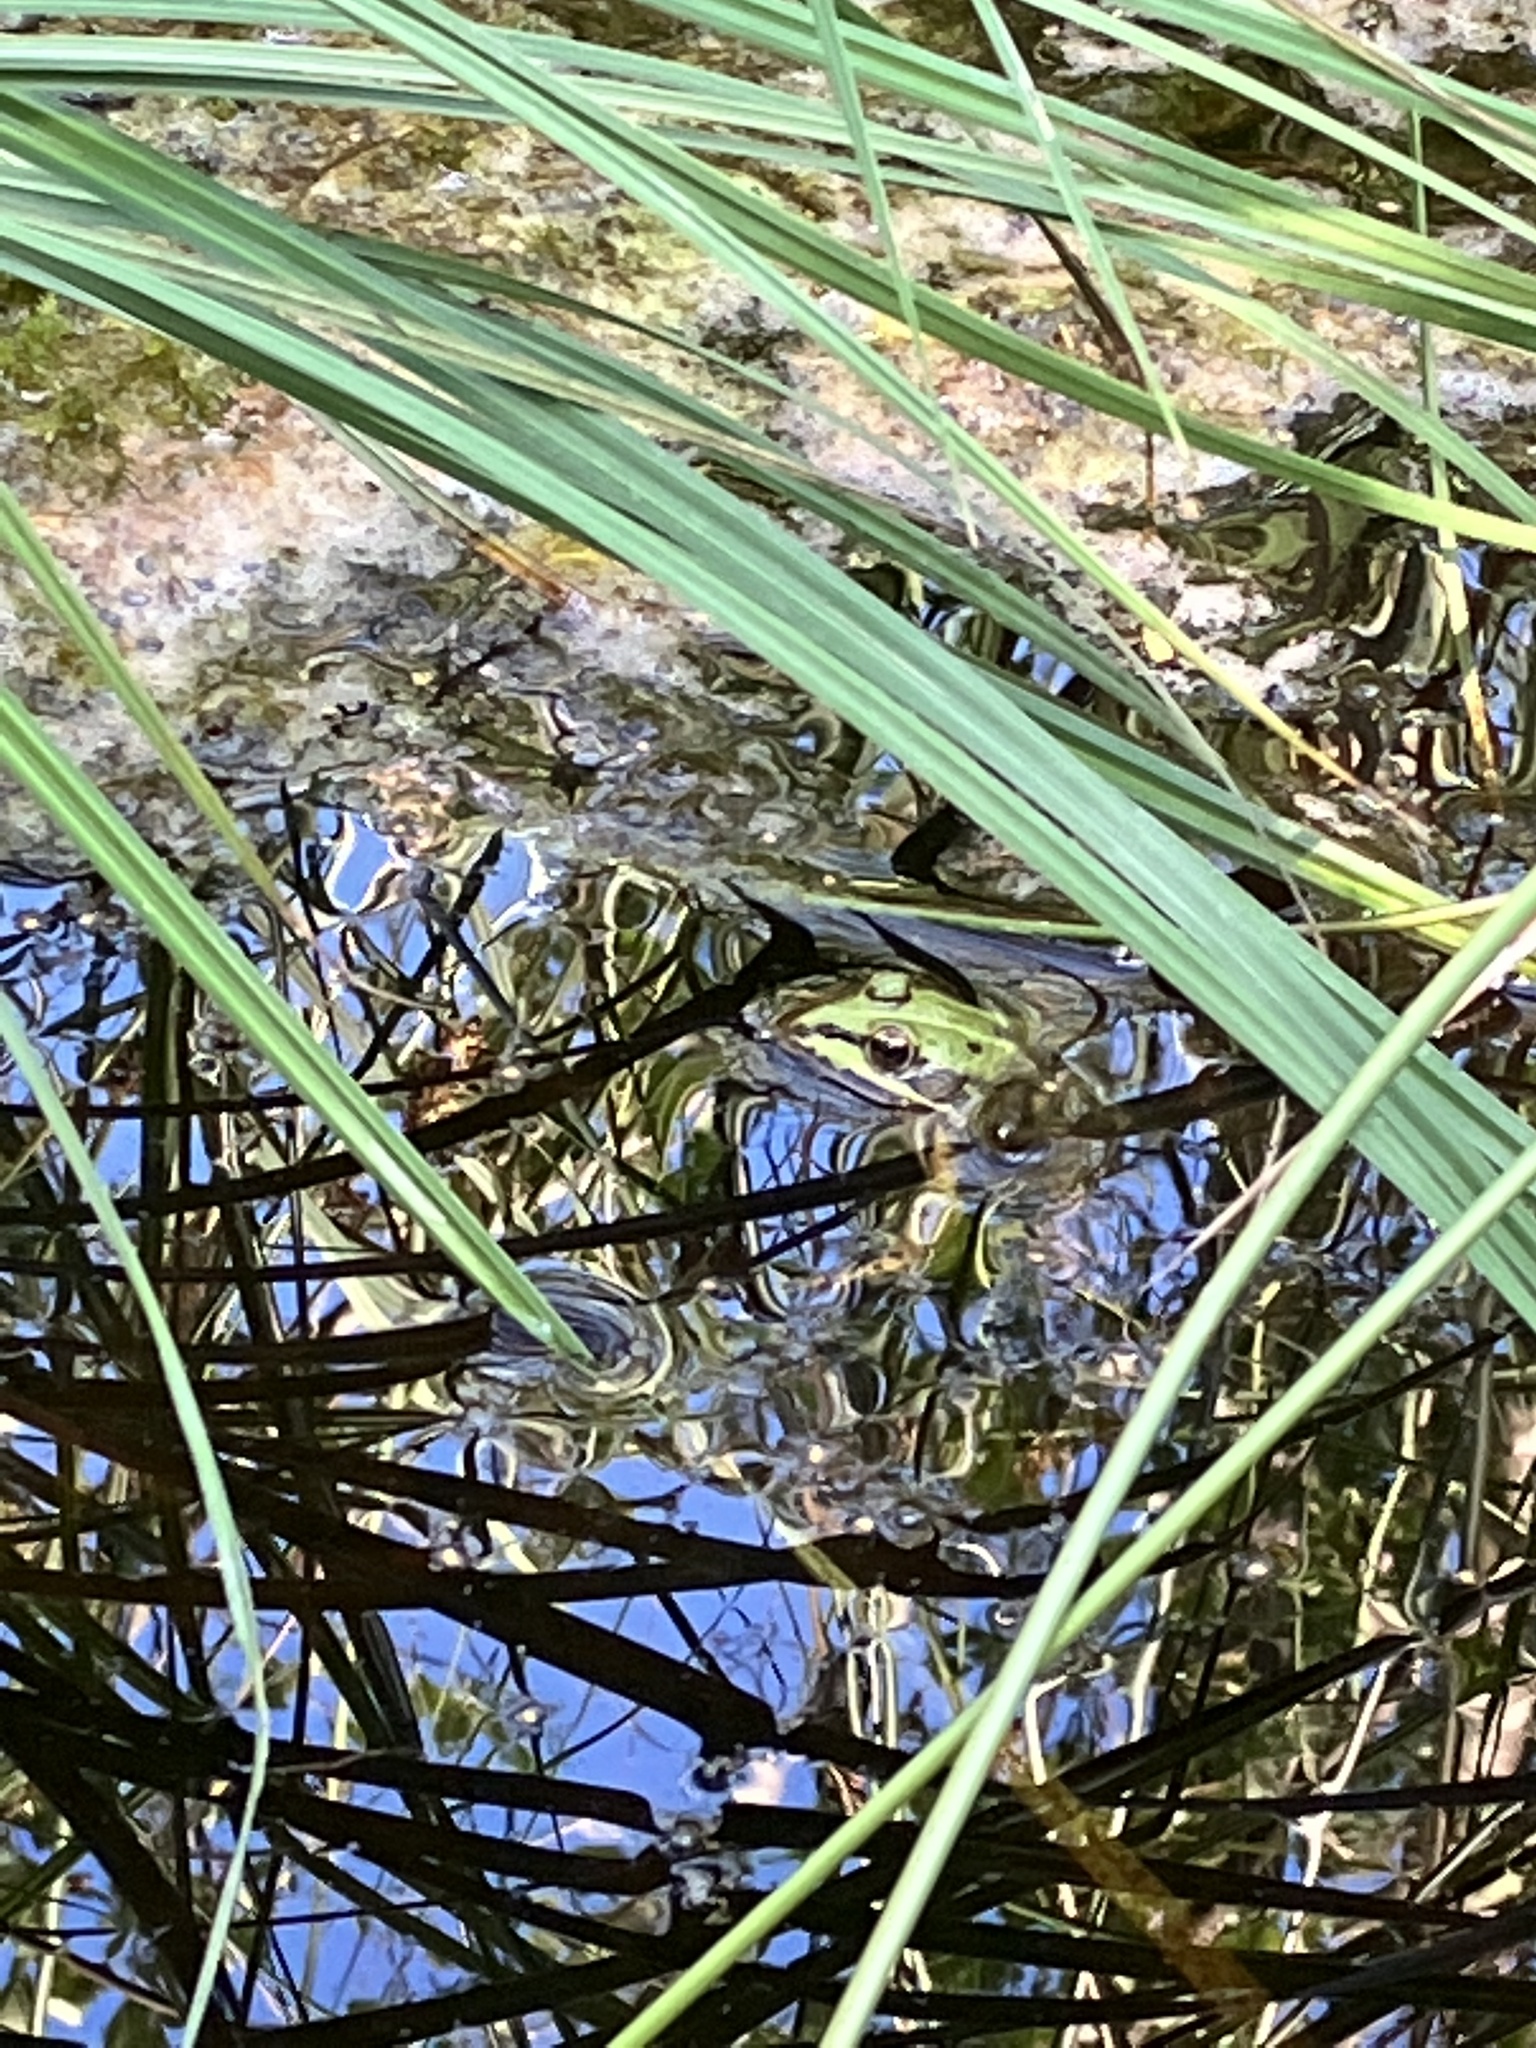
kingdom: Animalia
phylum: Chordata
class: Amphibia
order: Anura
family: Ranidae
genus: Pelophylax
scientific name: Pelophylax
